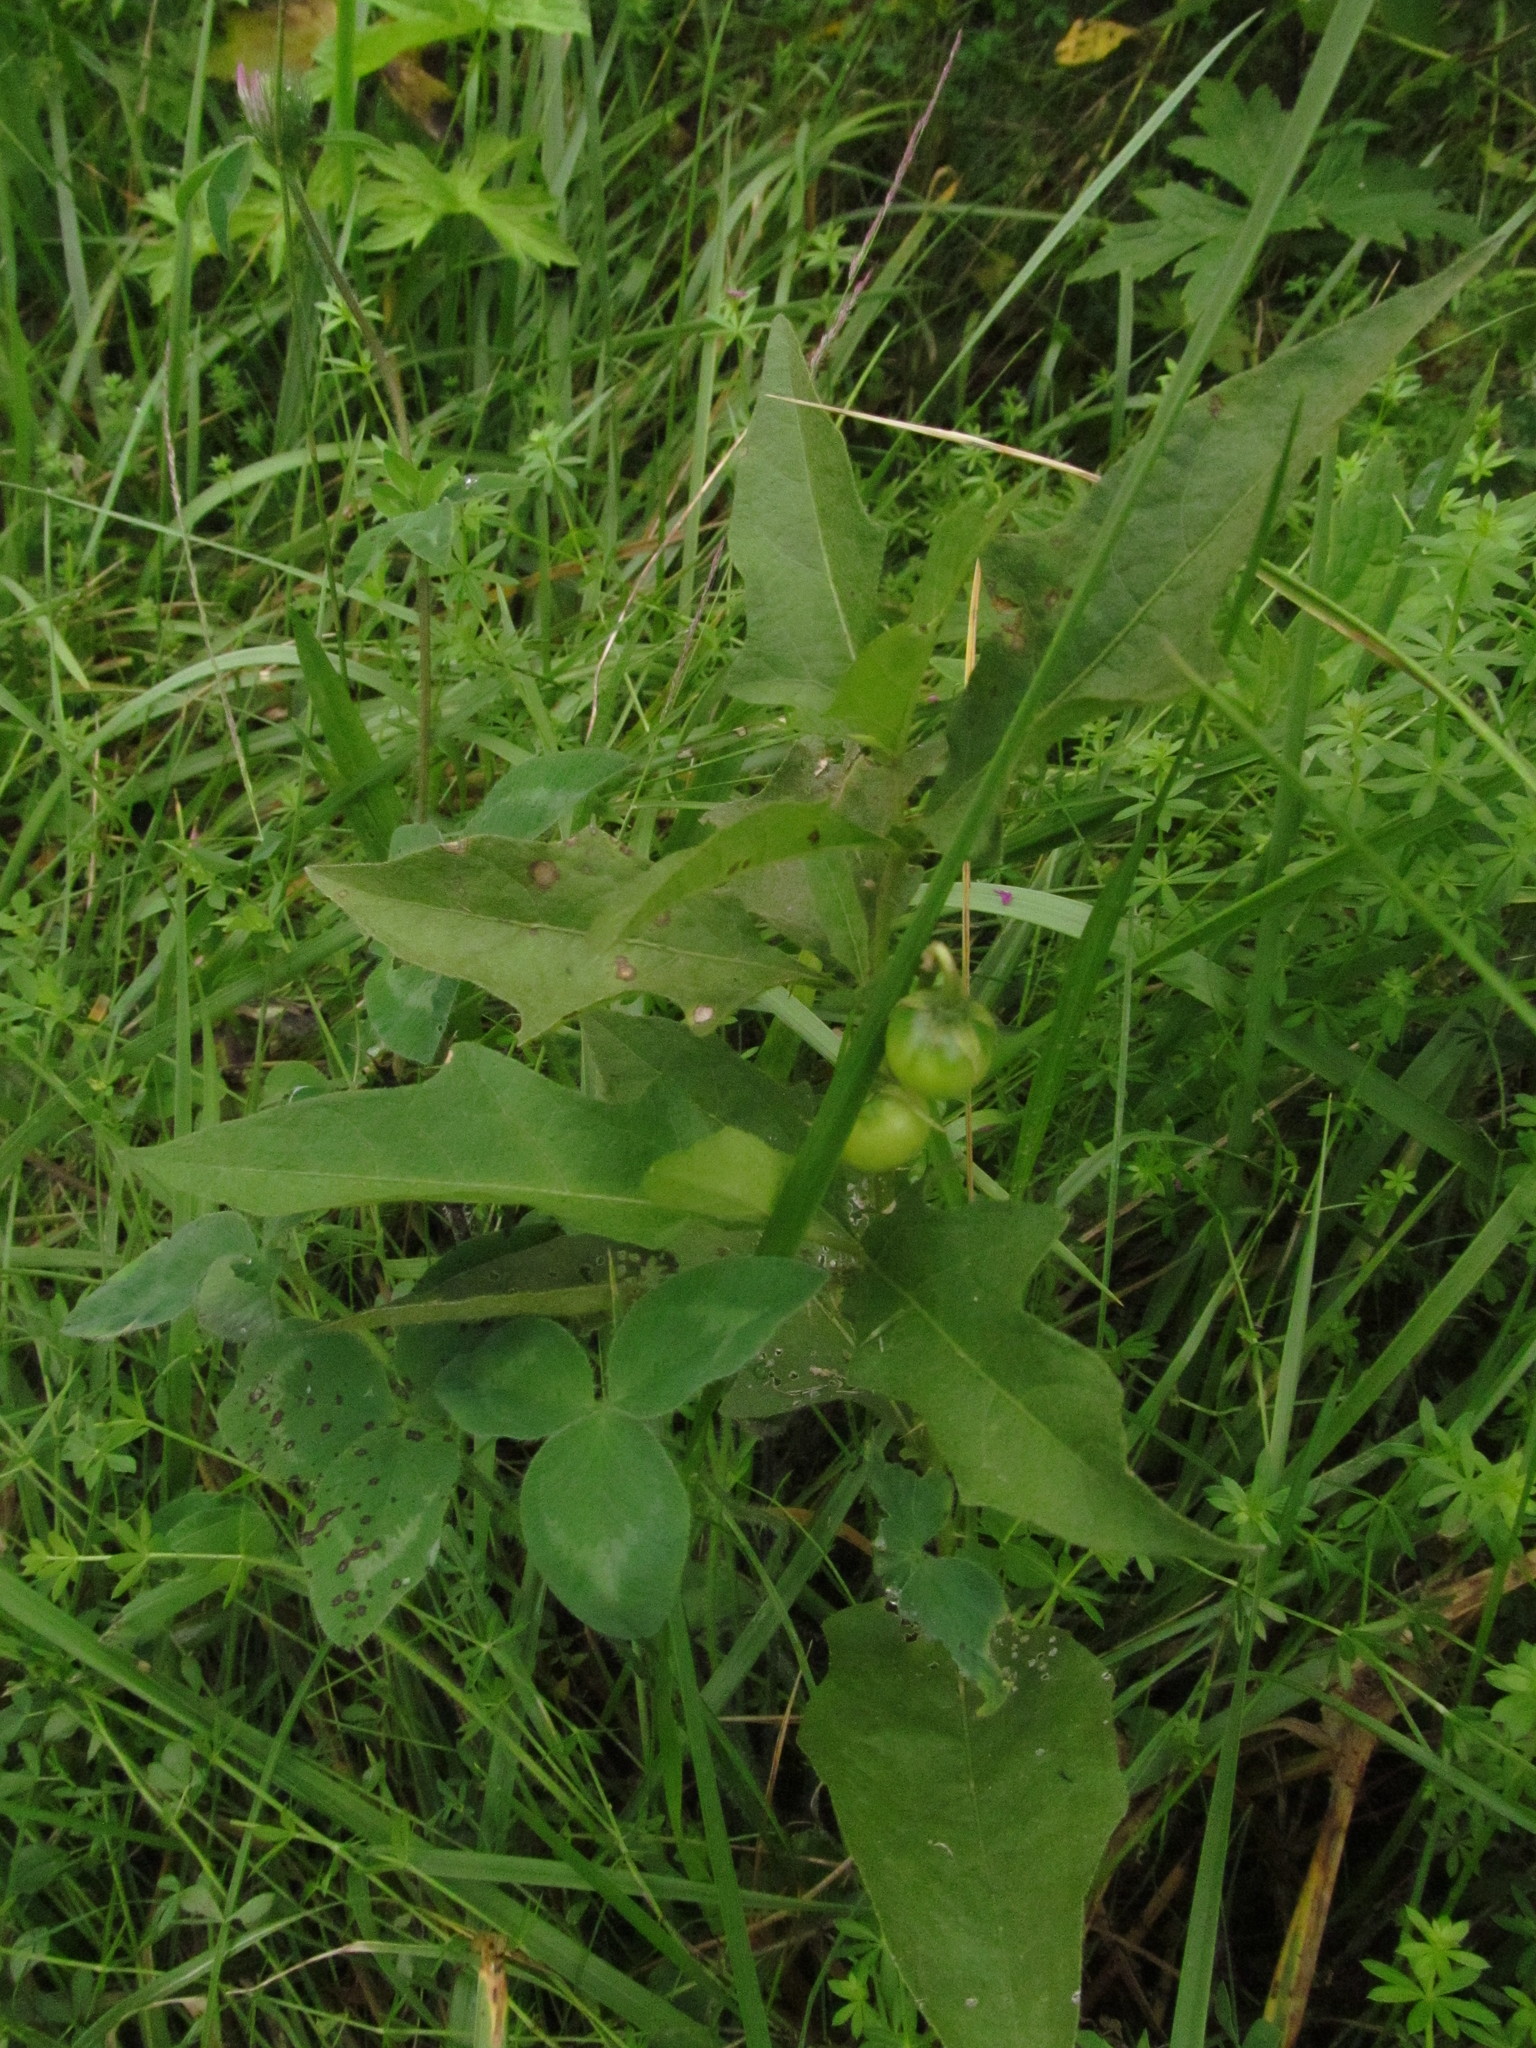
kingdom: Plantae
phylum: Tracheophyta
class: Magnoliopsida
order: Solanales
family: Solanaceae
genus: Solanum
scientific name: Solanum carolinense
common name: Horse-nettle
